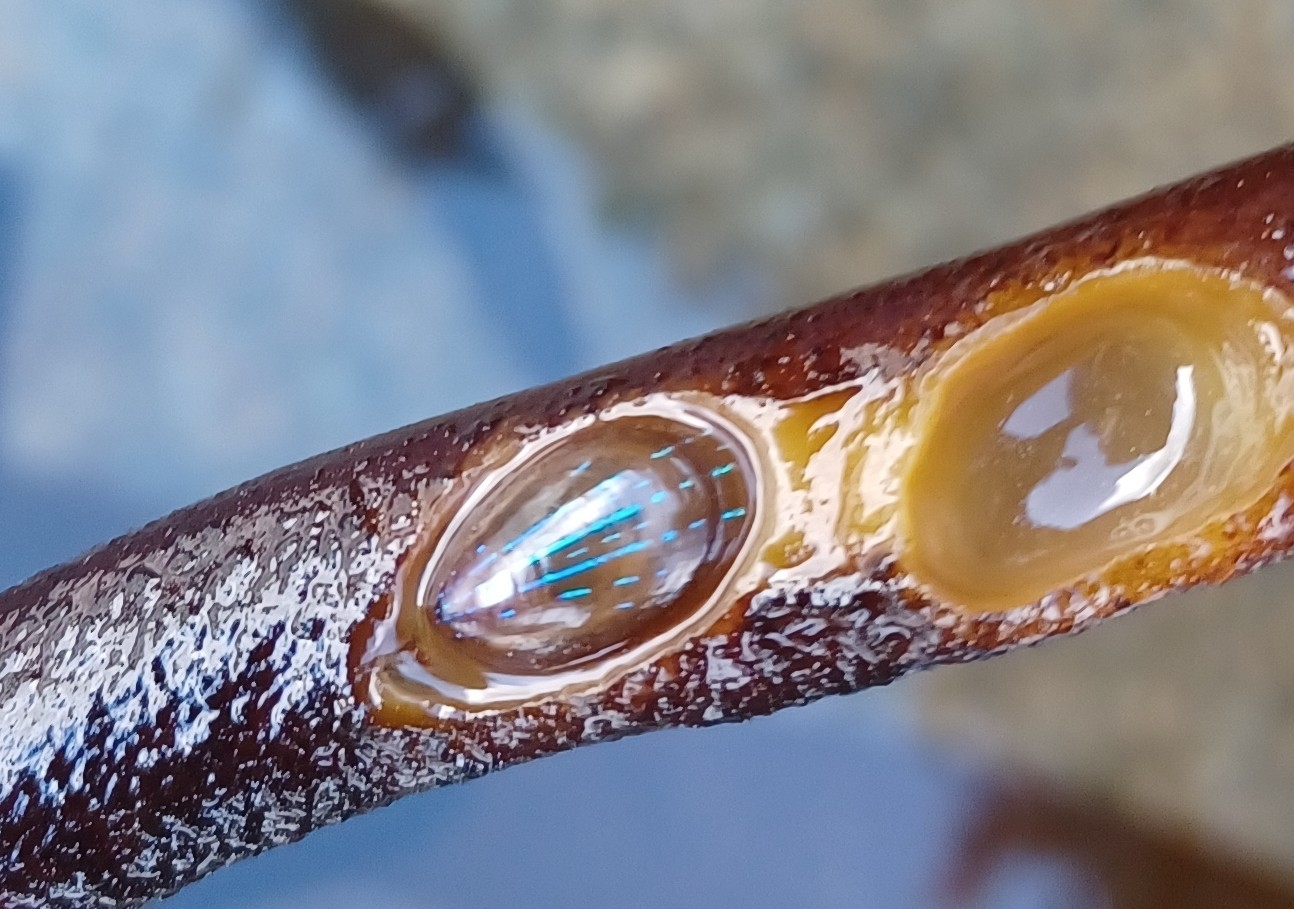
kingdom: Animalia
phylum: Mollusca
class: Gastropoda
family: Patellidae
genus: Patella
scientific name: Patella pellucida
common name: Blue-rayed limpet
